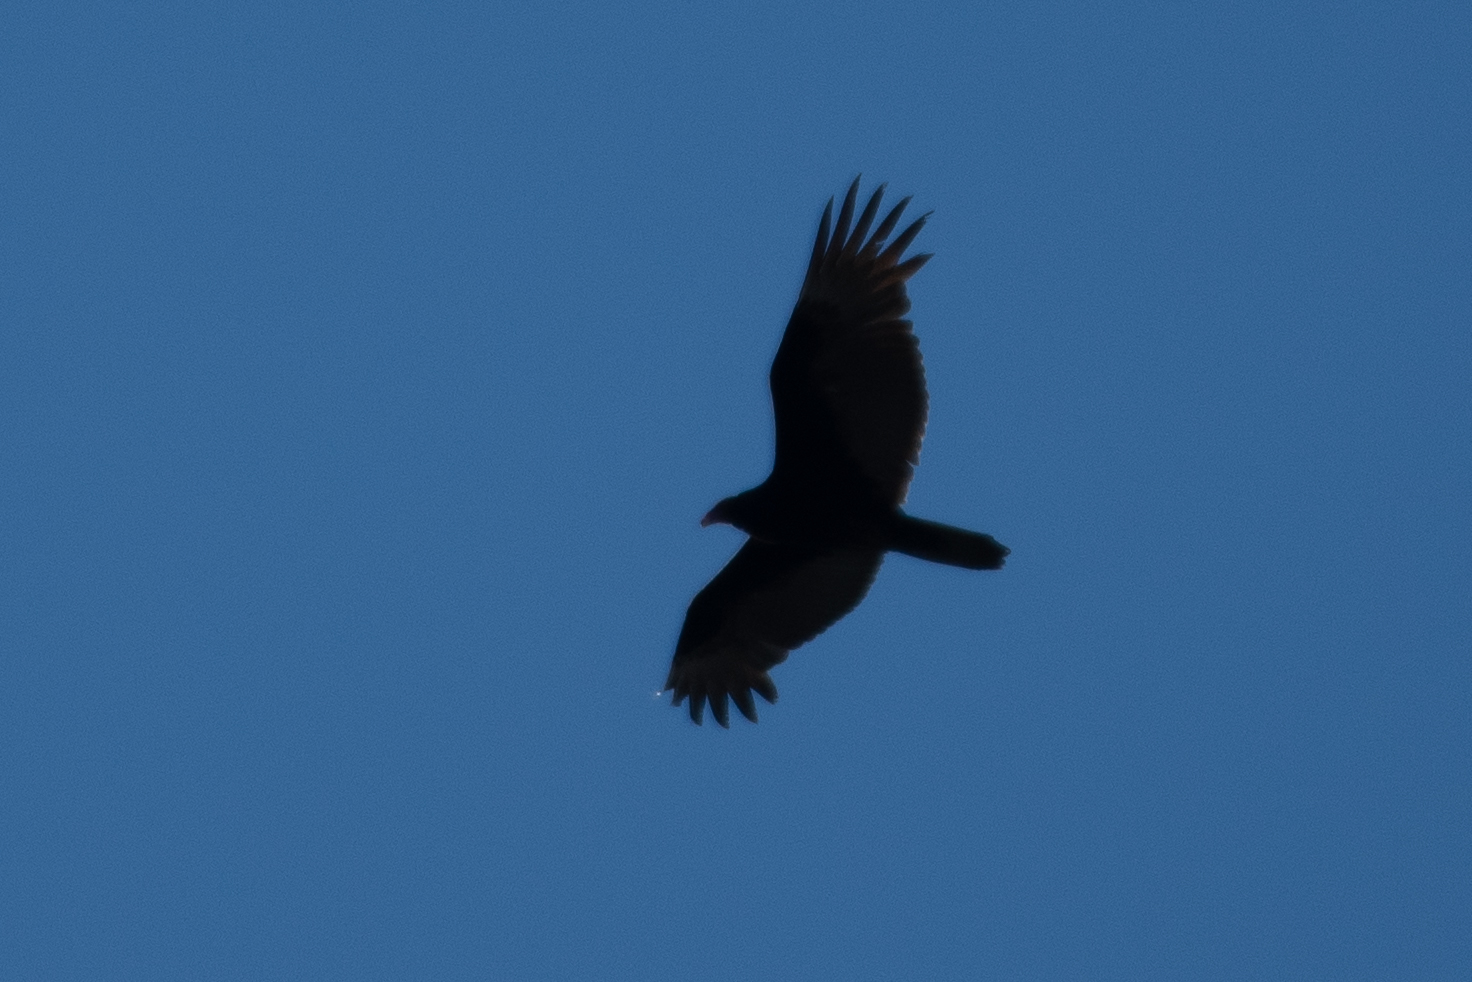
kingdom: Animalia
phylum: Chordata
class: Aves
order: Accipitriformes
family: Cathartidae
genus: Cathartes
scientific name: Cathartes aura
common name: Turkey vulture
